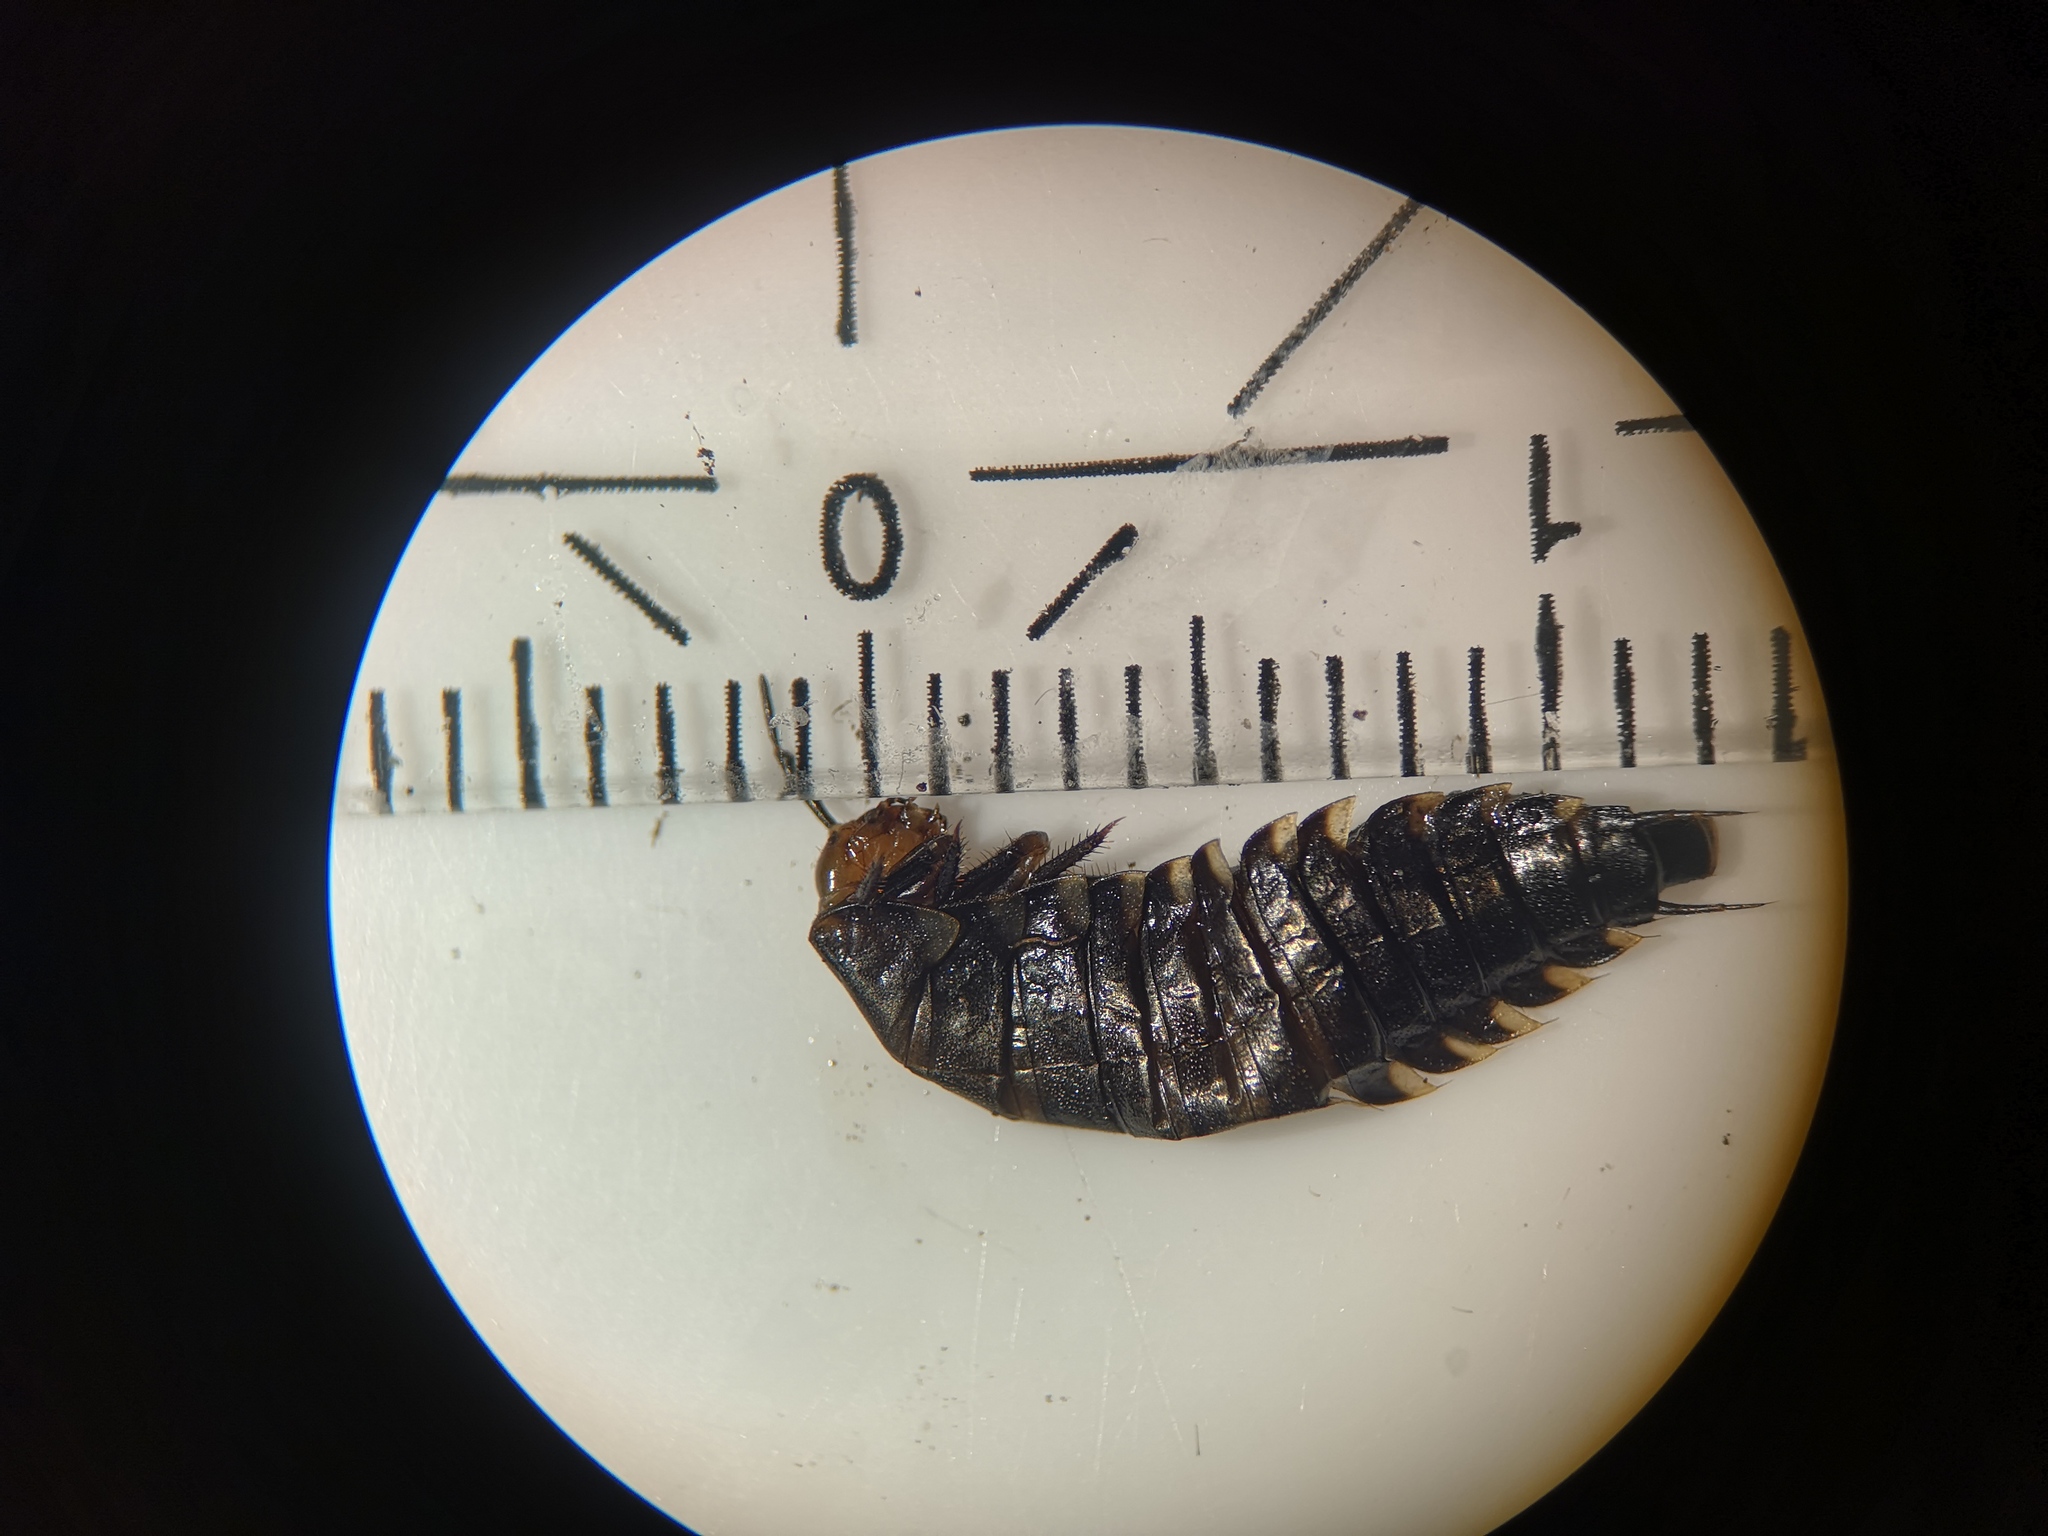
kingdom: Animalia
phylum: Arthropoda
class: Insecta
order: Coleoptera
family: Staphylinidae
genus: Silpha
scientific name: Silpha tristis
